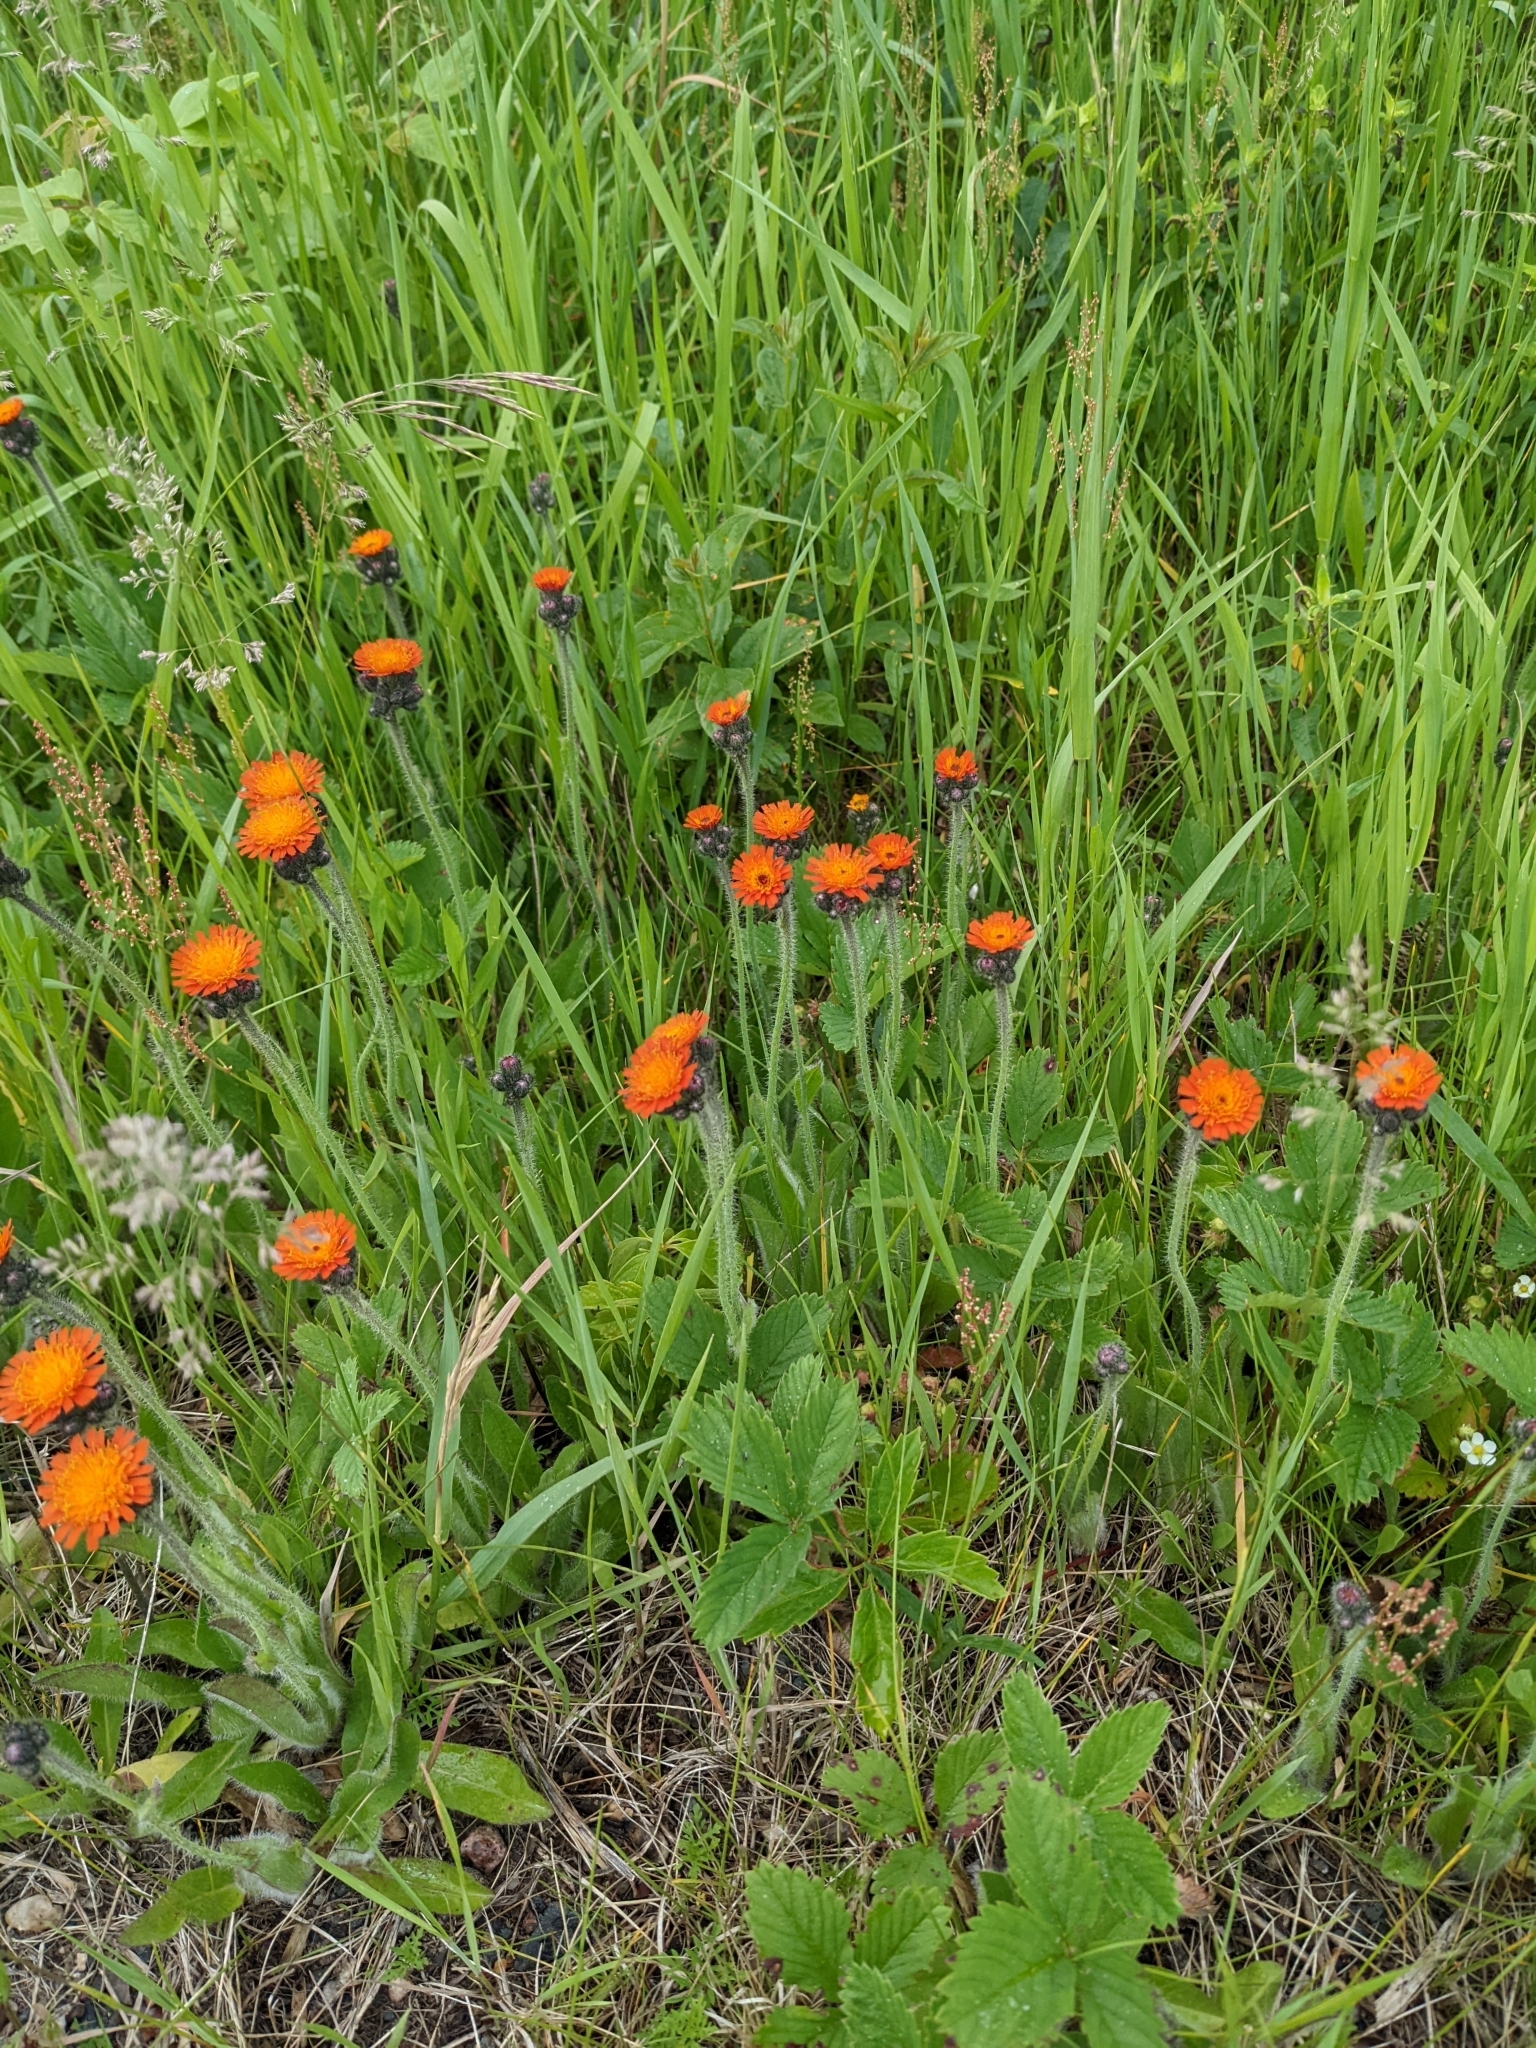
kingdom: Plantae
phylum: Tracheophyta
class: Magnoliopsida
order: Asterales
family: Asteraceae
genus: Pilosella
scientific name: Pilosella aurantiaca
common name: Fox-and-cubs
